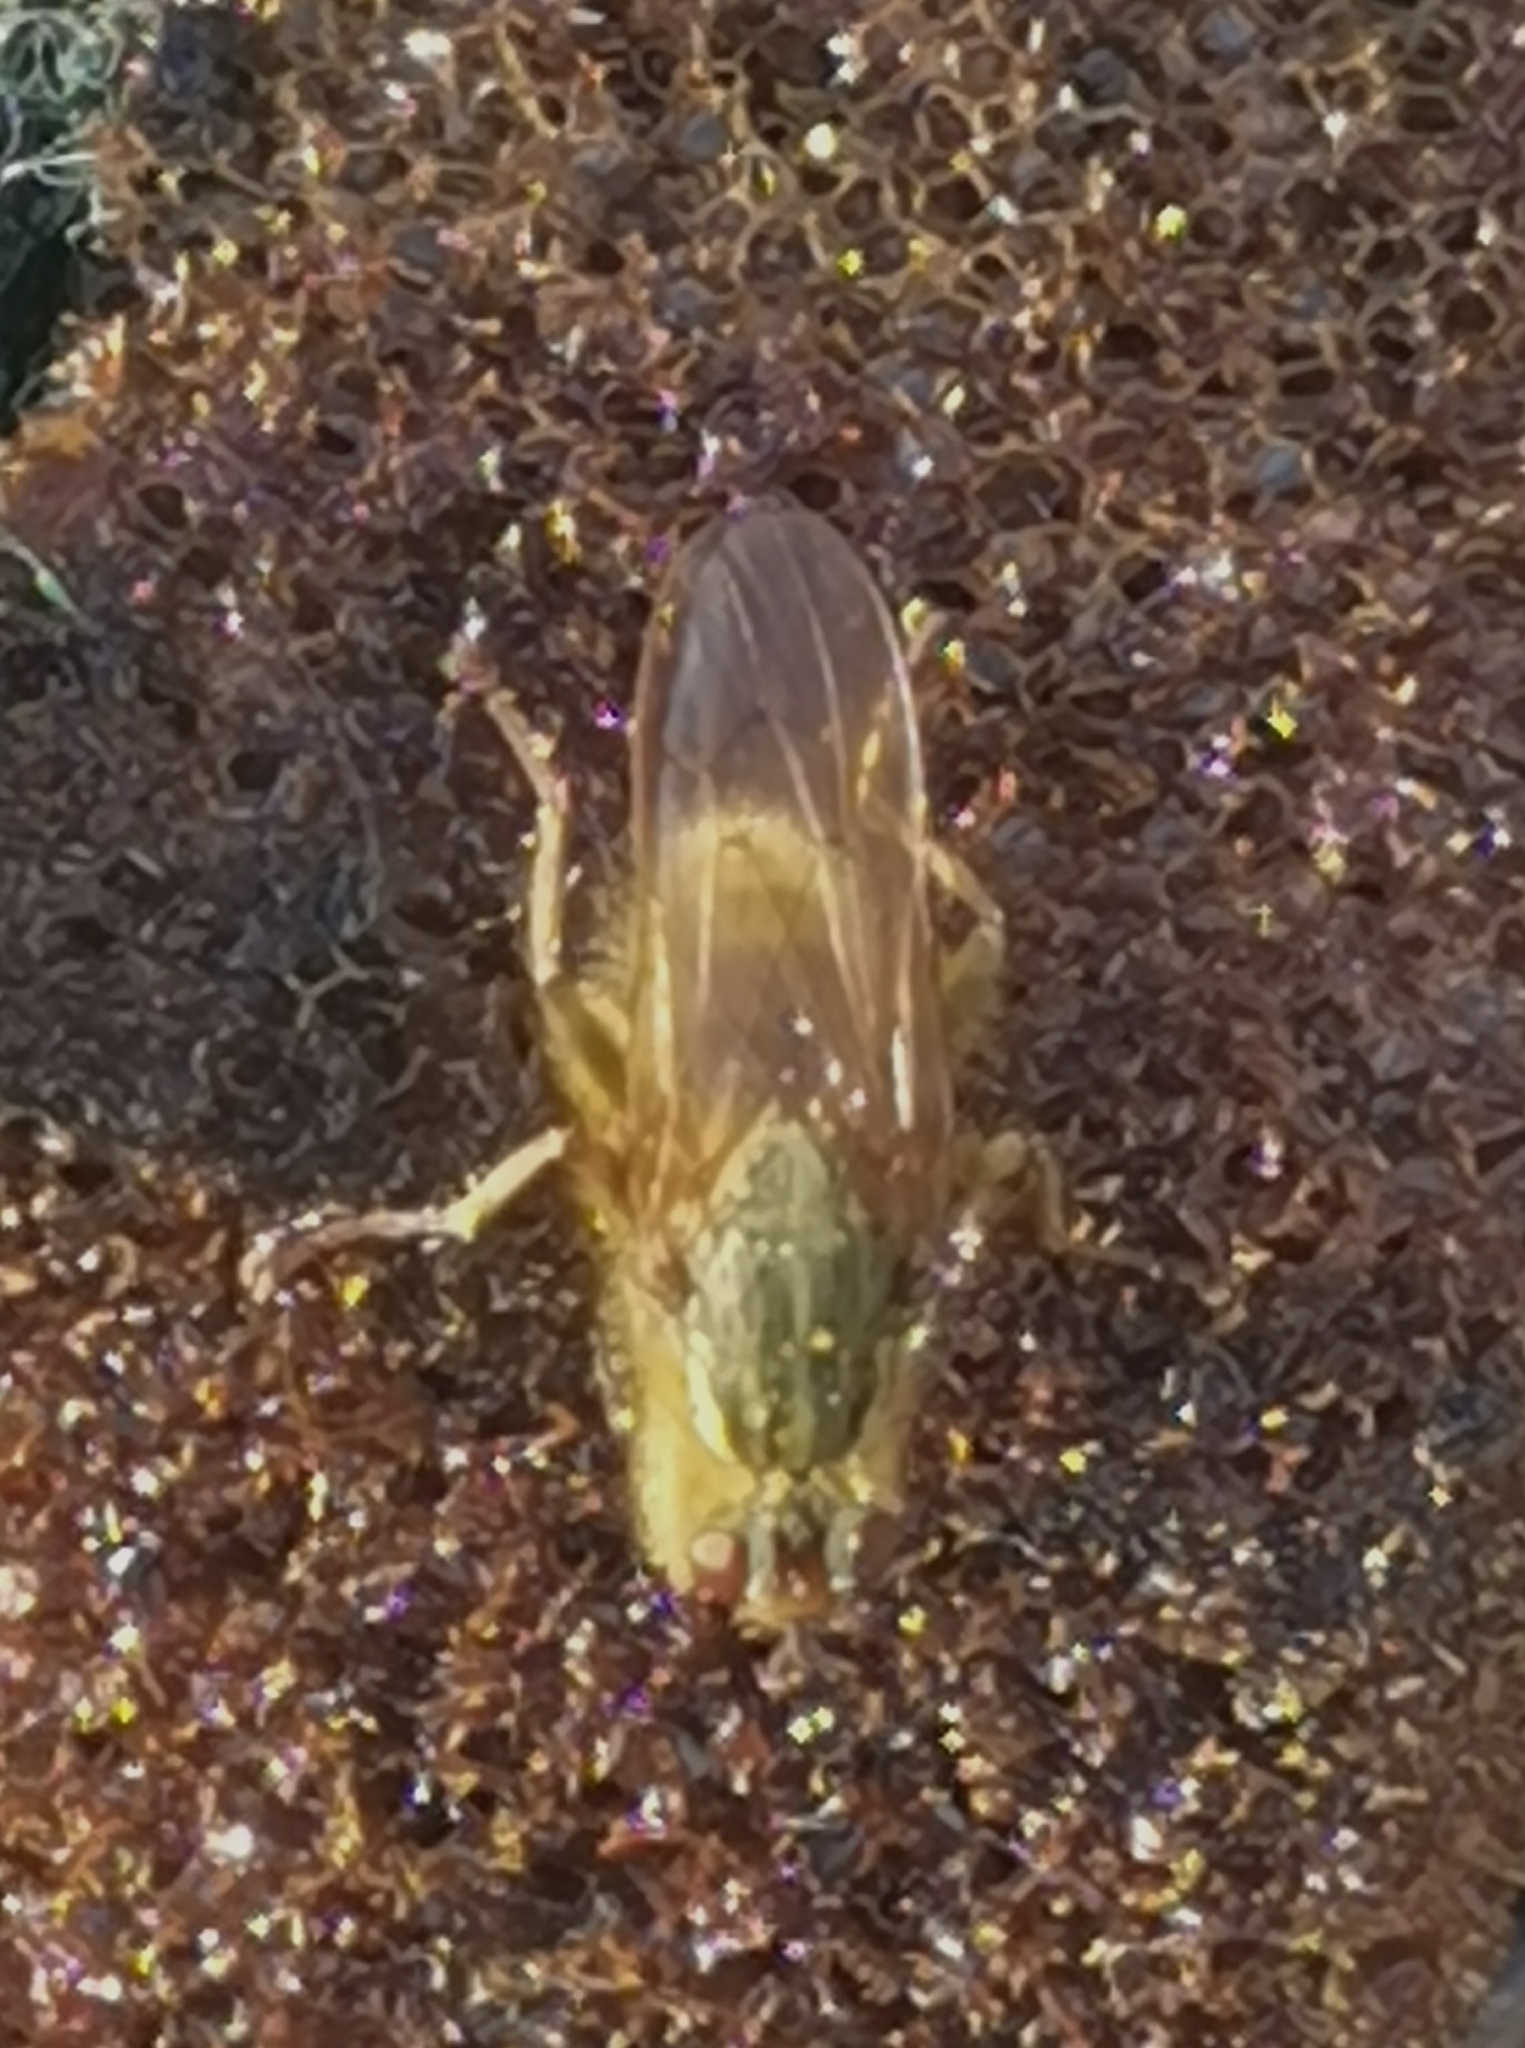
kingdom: Animalia
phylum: Arthropoda
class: Insecta
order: Diptera
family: Scathophagidae
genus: Scathophaga
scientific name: Scathophaga stercoraria
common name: Yellow dung fly
